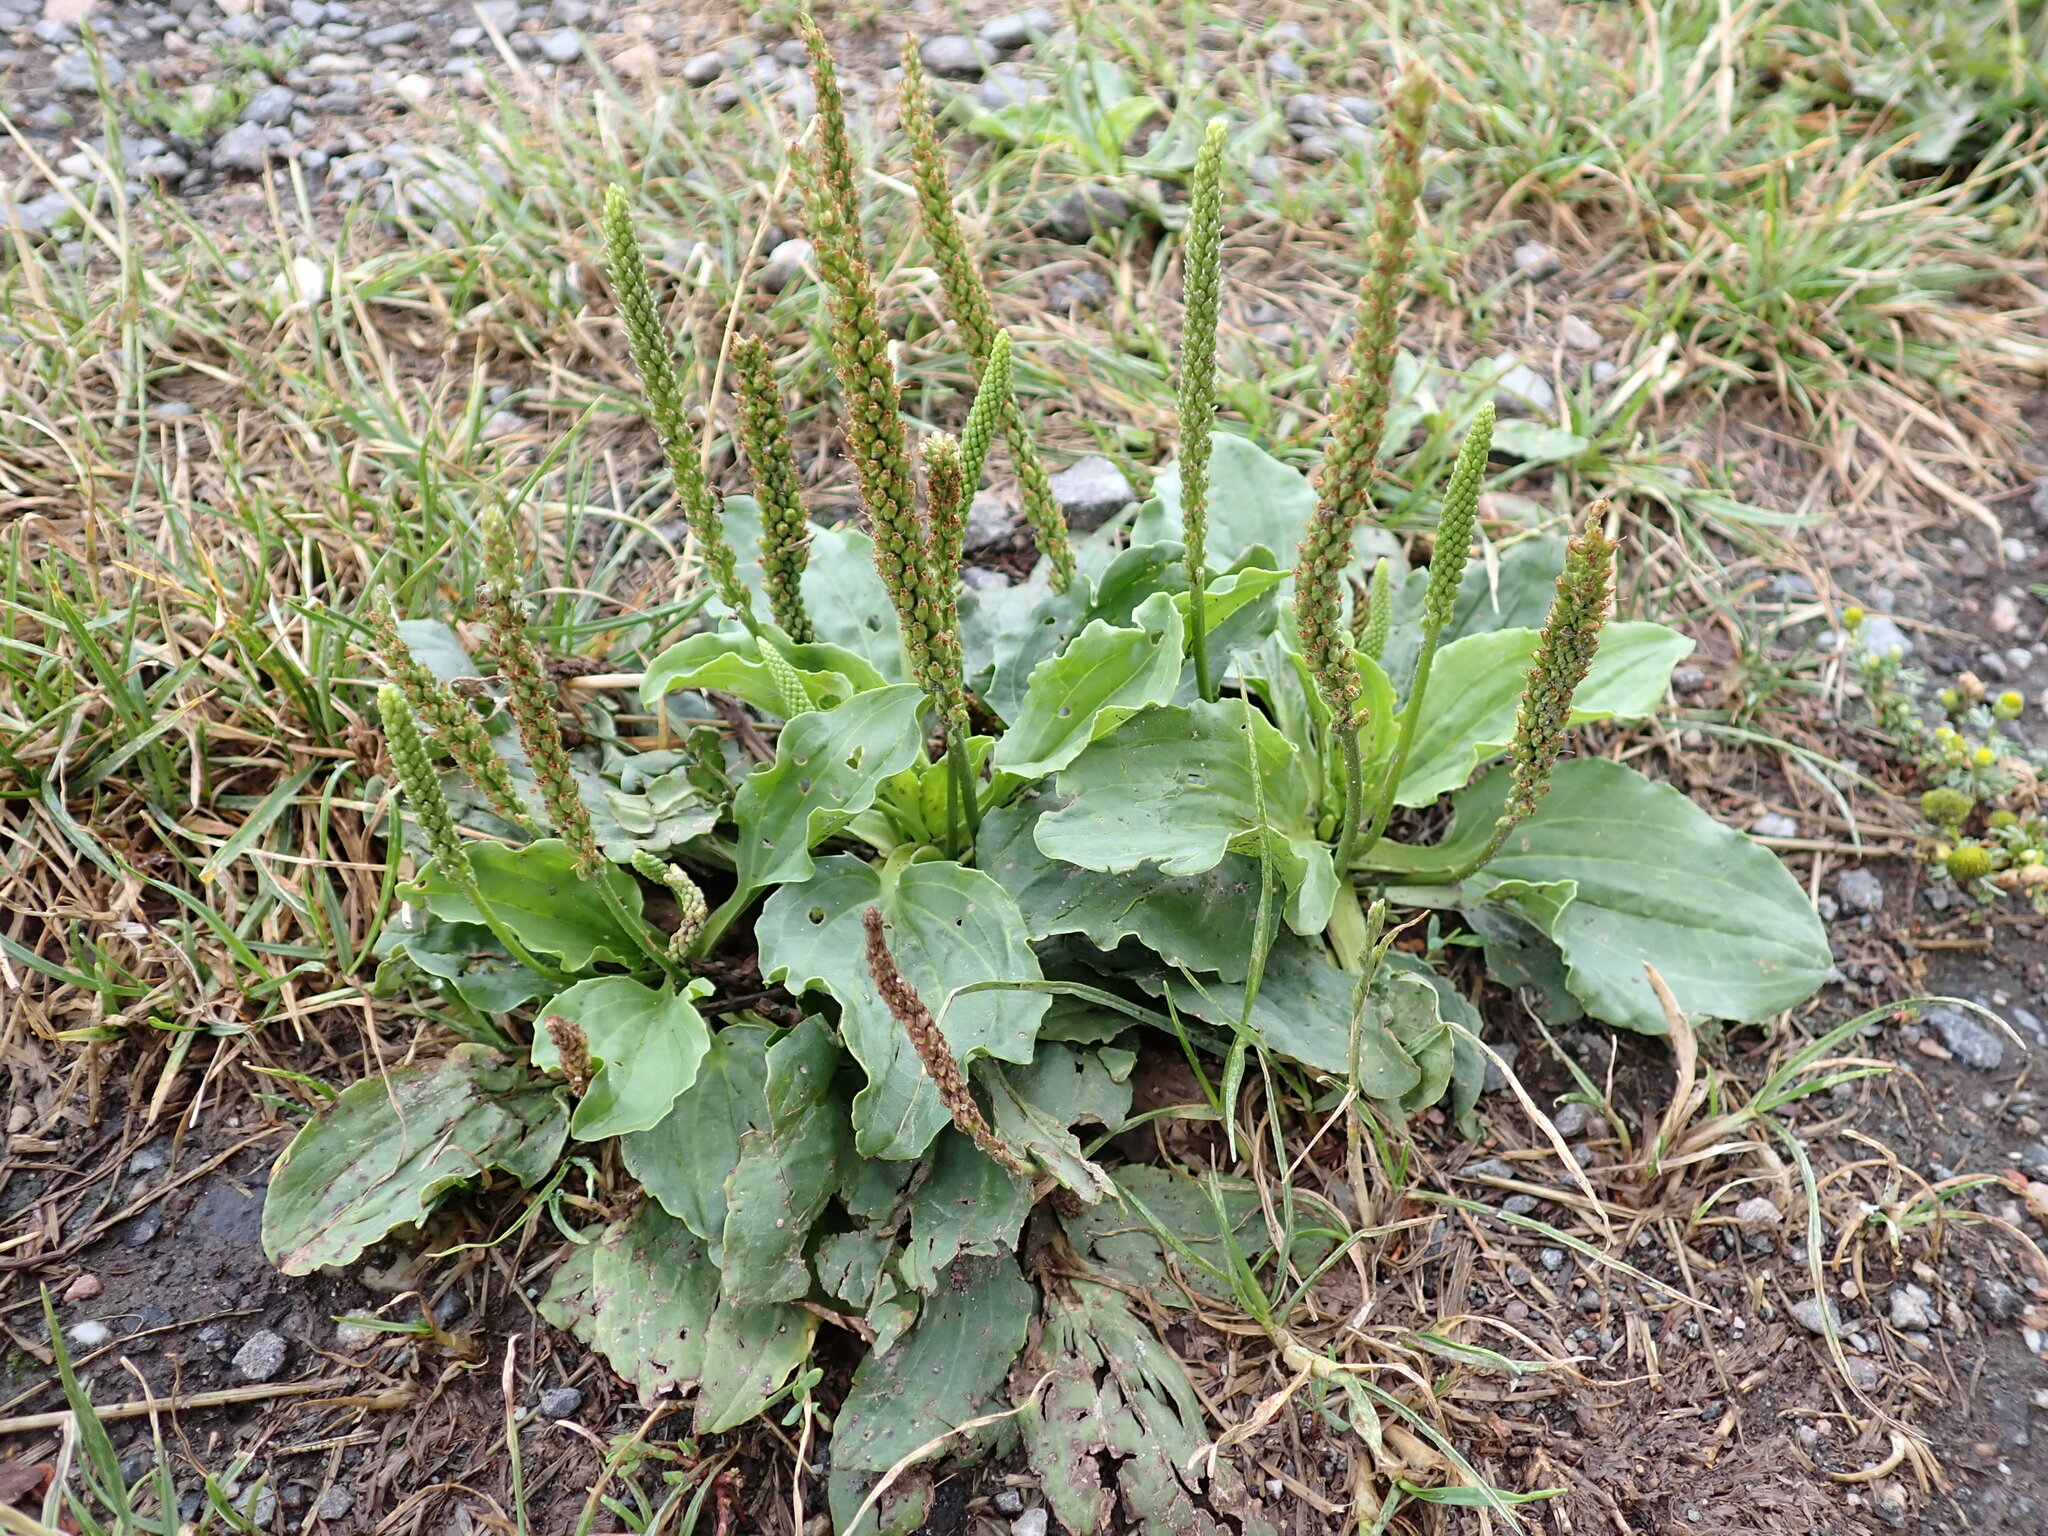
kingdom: Plantae
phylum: Tracheophyta
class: Magnoliopsida
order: Lamiales
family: Plantaginaceae
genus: Plantago
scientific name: Plantago major
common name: Common plantain
